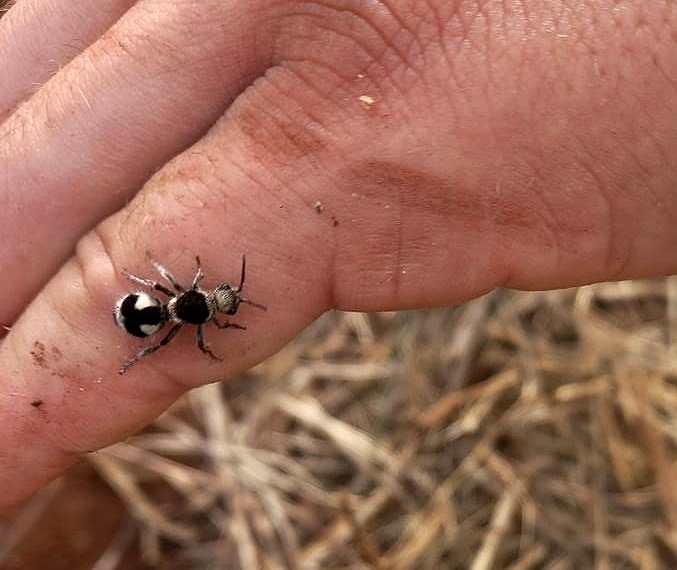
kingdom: Animalia
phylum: Arthropoda
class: Insecta
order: Hymenoptera
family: Mutillidae
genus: Dasymutilla
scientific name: Dasymutilla
